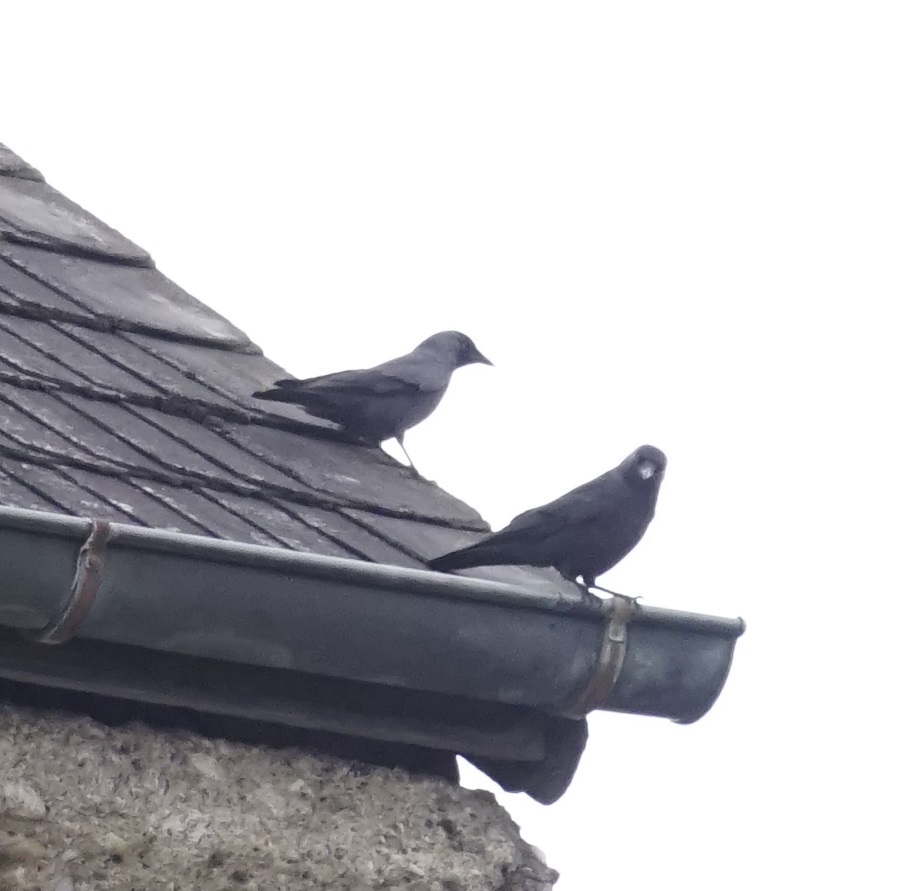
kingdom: Animalia
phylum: Chordata
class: Aves
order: Passeriformes
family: Corvidae
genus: Coloeus
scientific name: Coloeus monedula
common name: Western jackdaw
